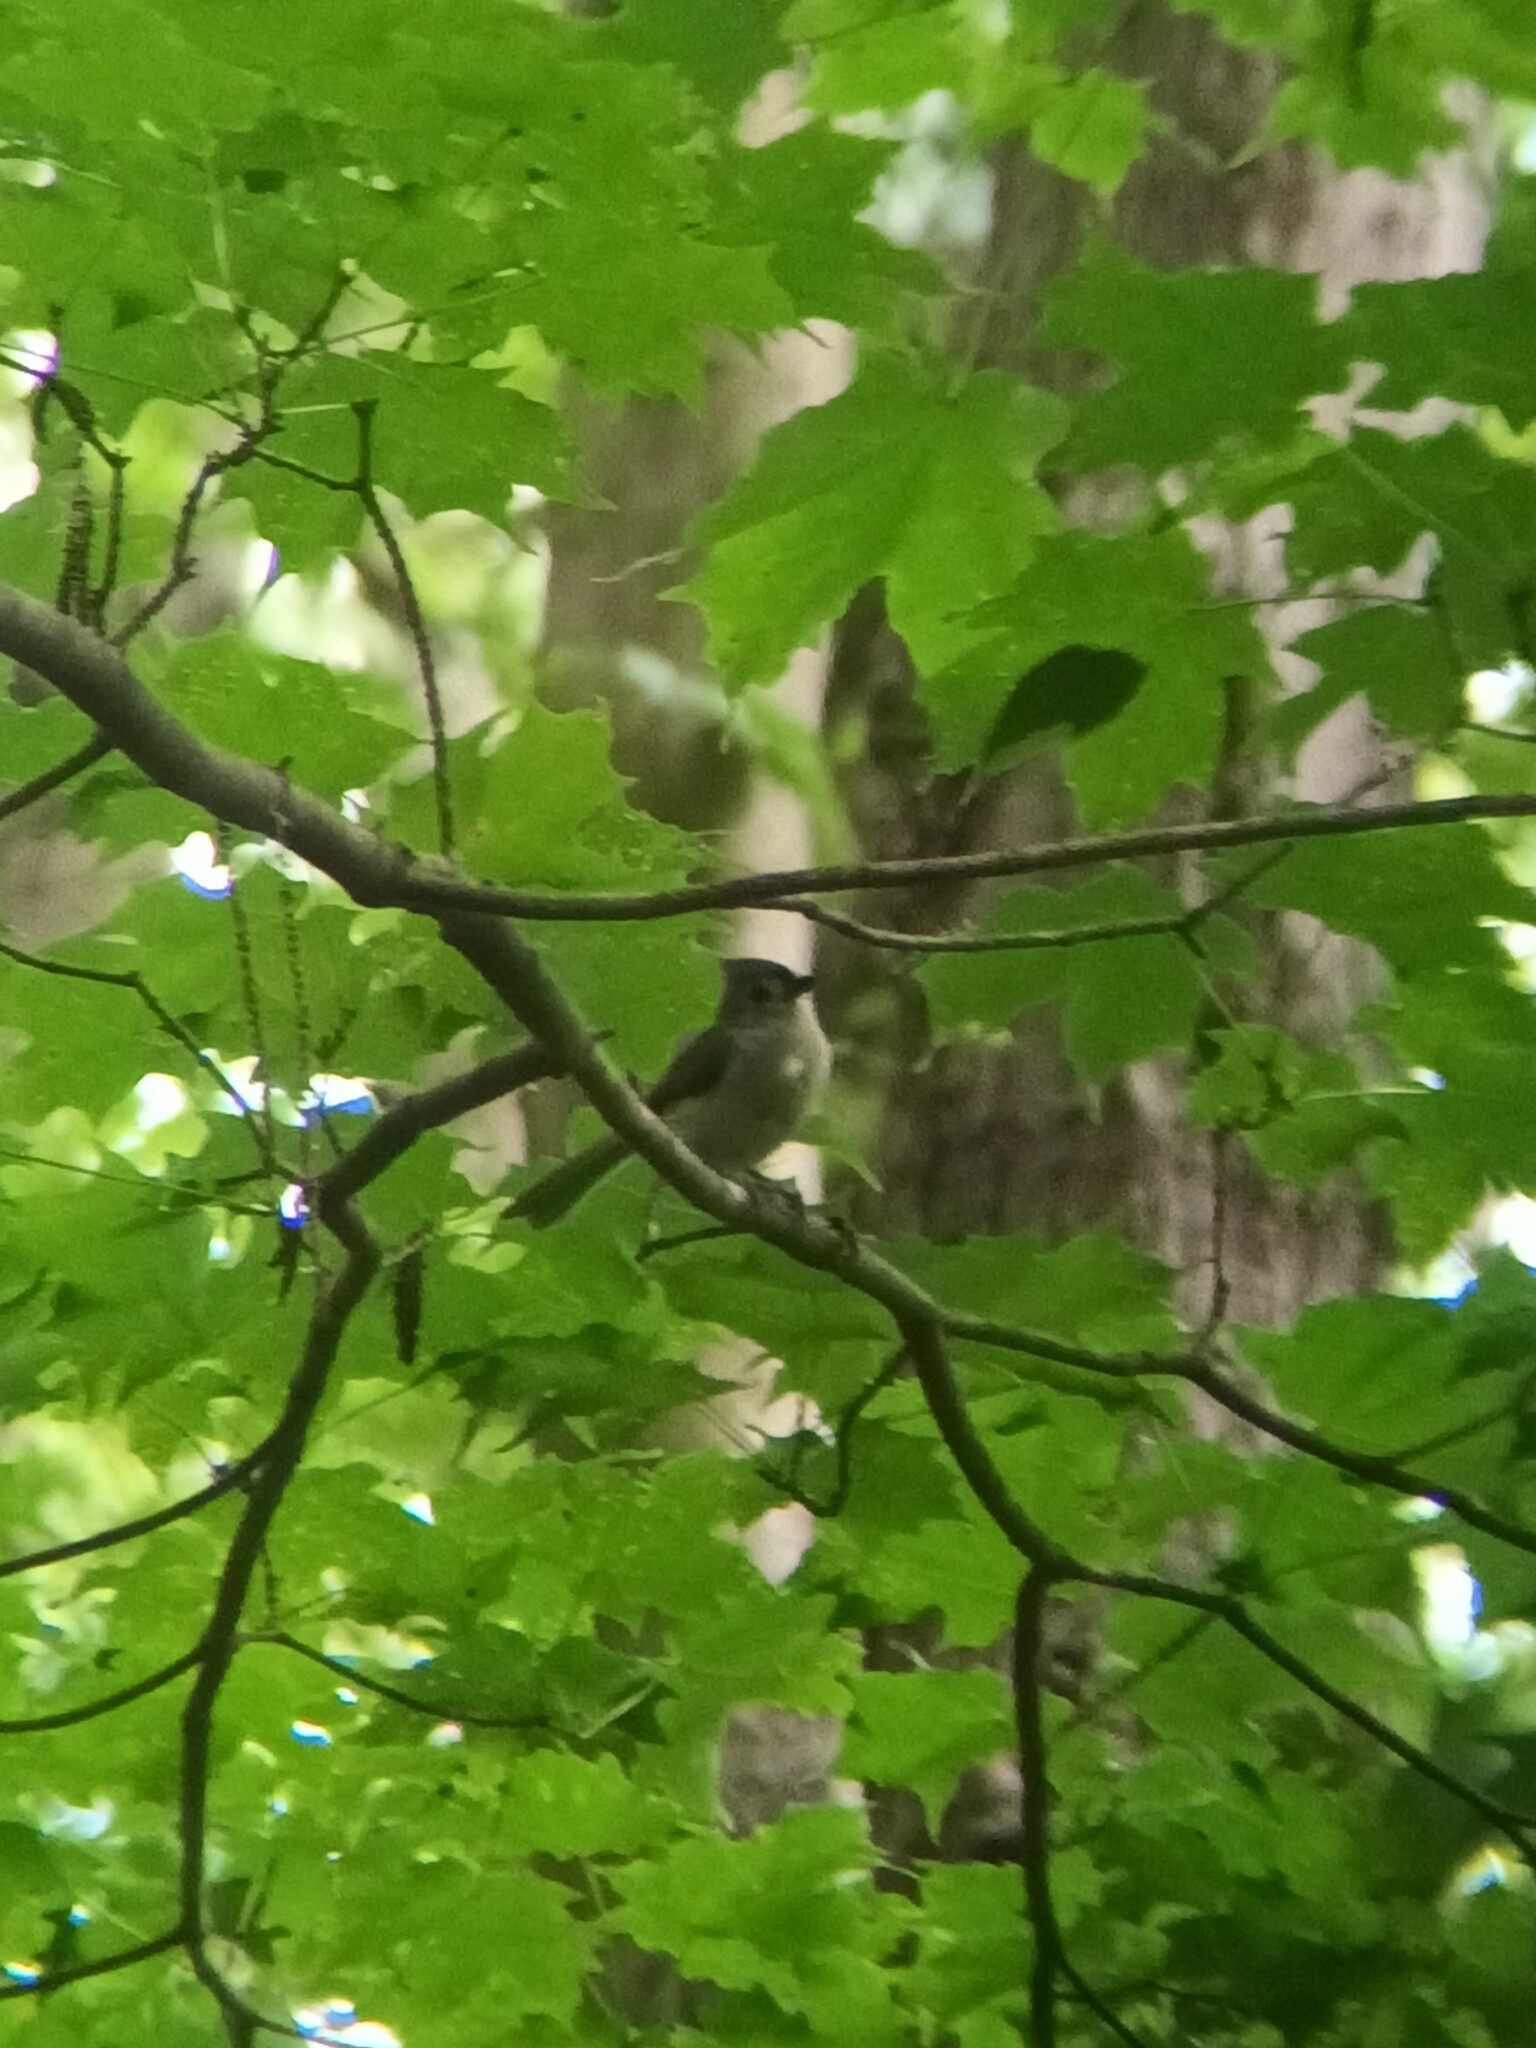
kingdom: Animalia
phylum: Chordata
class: Aves
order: Passeriformes
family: Paridae
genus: Baeolophus
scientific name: Baeolophus bicolor
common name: Tufted titmouse
